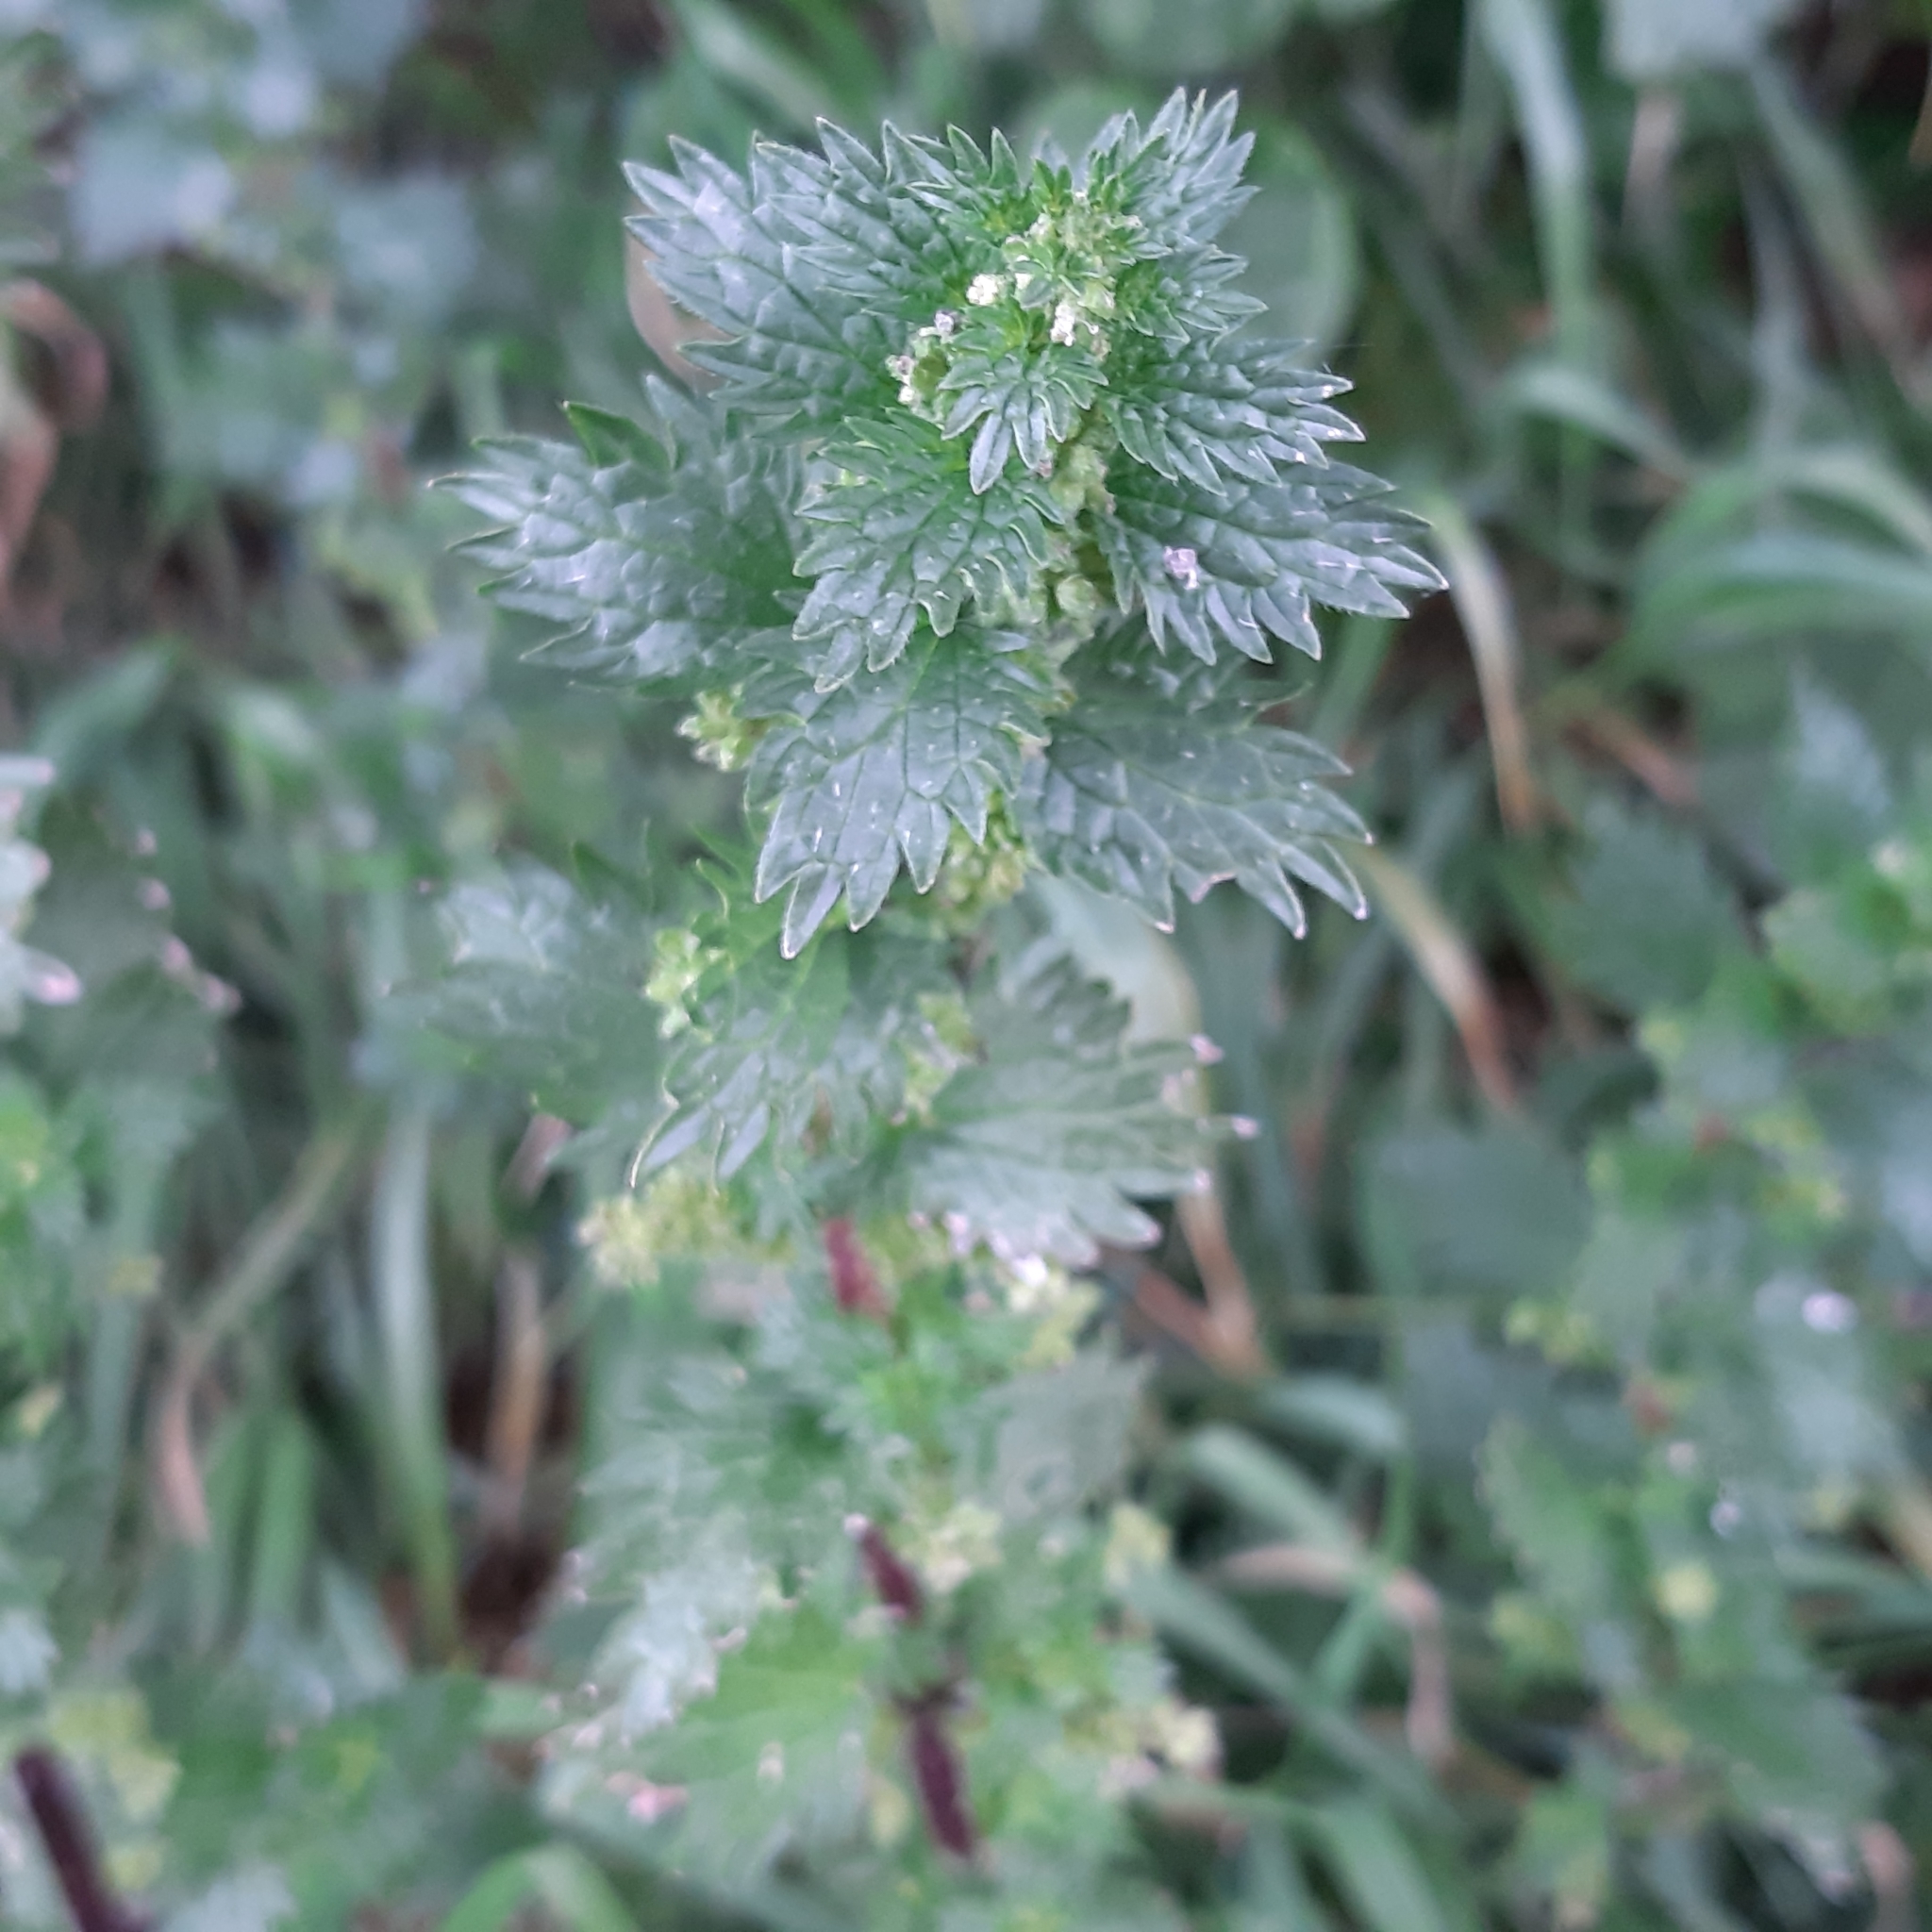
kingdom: Plantae
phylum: Tracheophyta
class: Magnoliopsida
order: Rosales
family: Urticaceae
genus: Urtica
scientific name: Urtica urens
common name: Dwarf nettle
